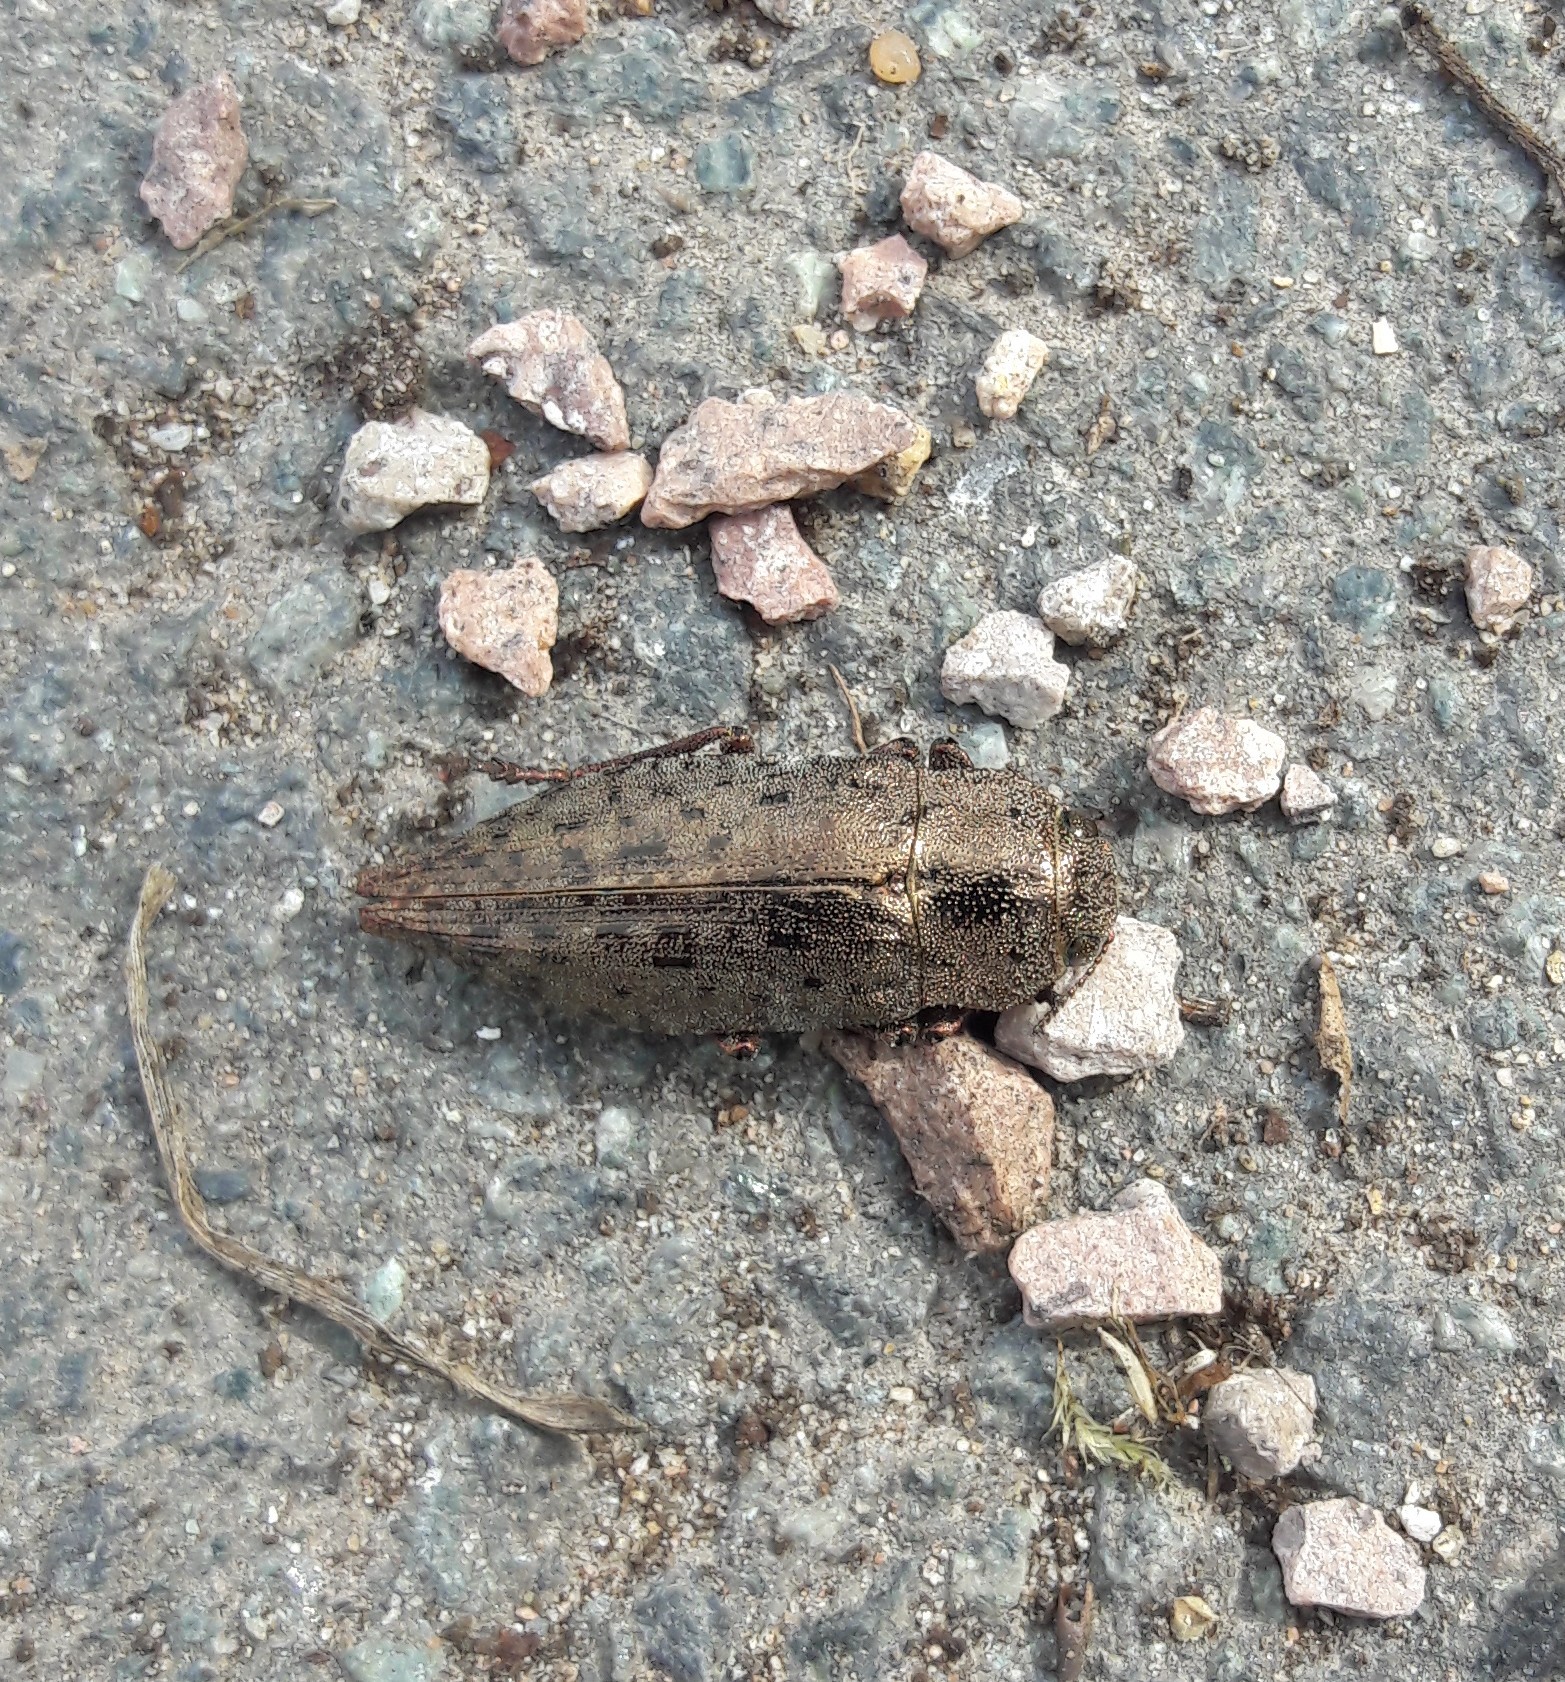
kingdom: Animalia
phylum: Arthropoda
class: Insecta
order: Coleoptera
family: Buprestidae
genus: Dicerca
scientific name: Dicerca berolinensis
